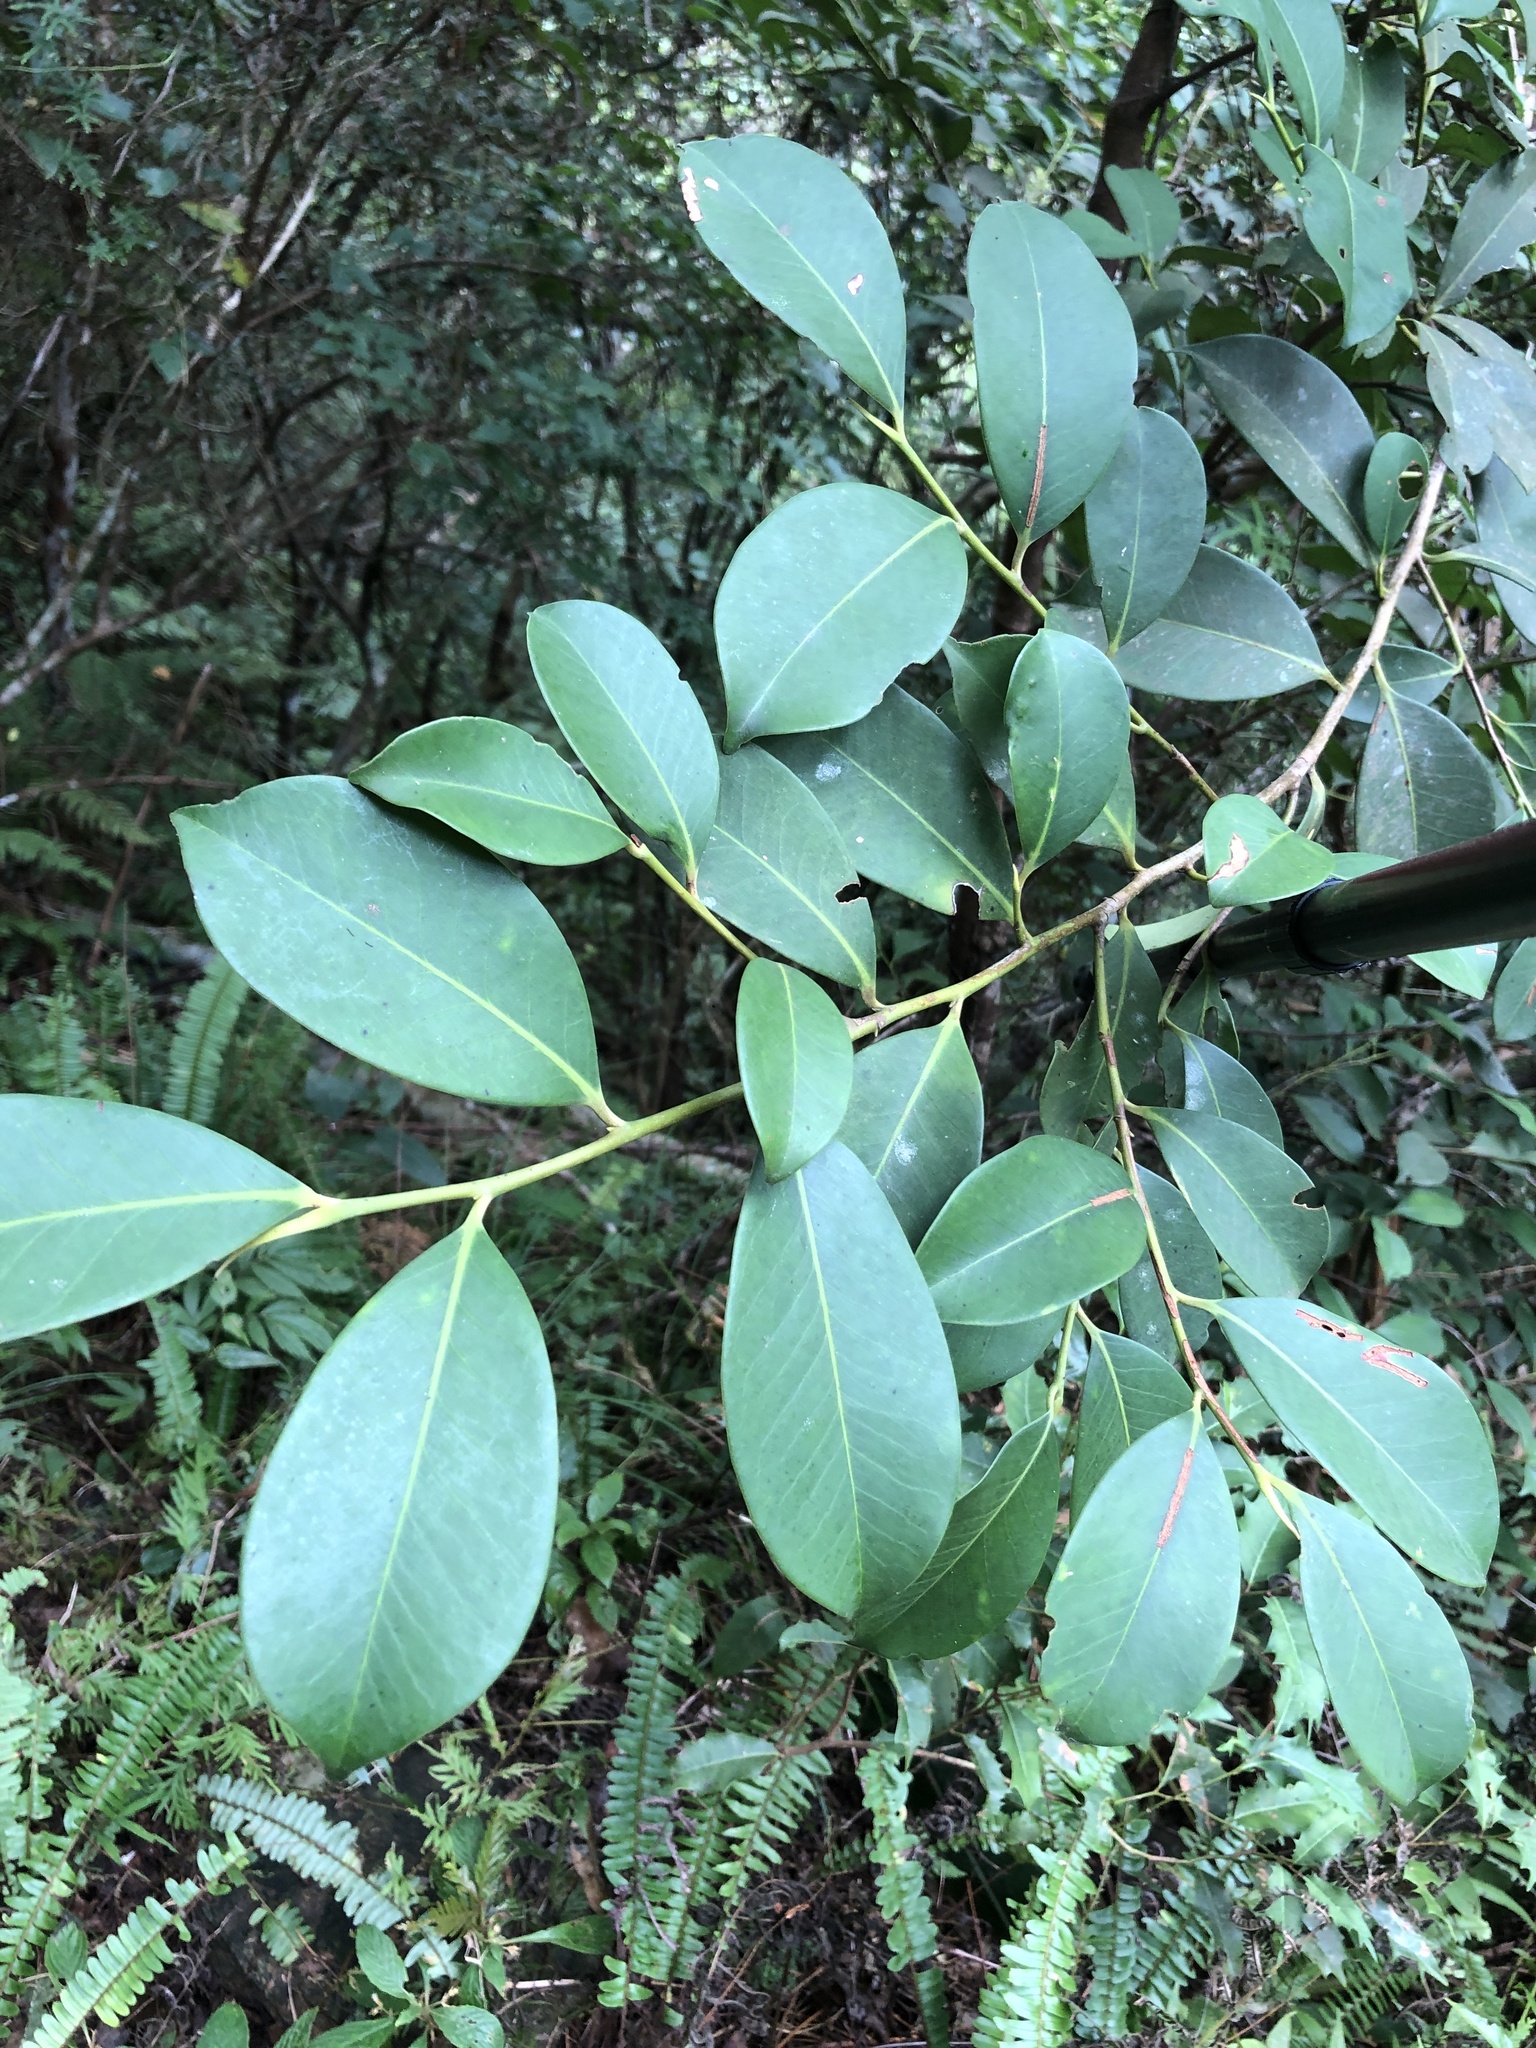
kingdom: Plantae
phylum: Tracheophyta
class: Magnoliopsida
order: Ericales
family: Pentaphylacaceae
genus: Cleyera
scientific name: Cleyera japonica
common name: Sakaki
